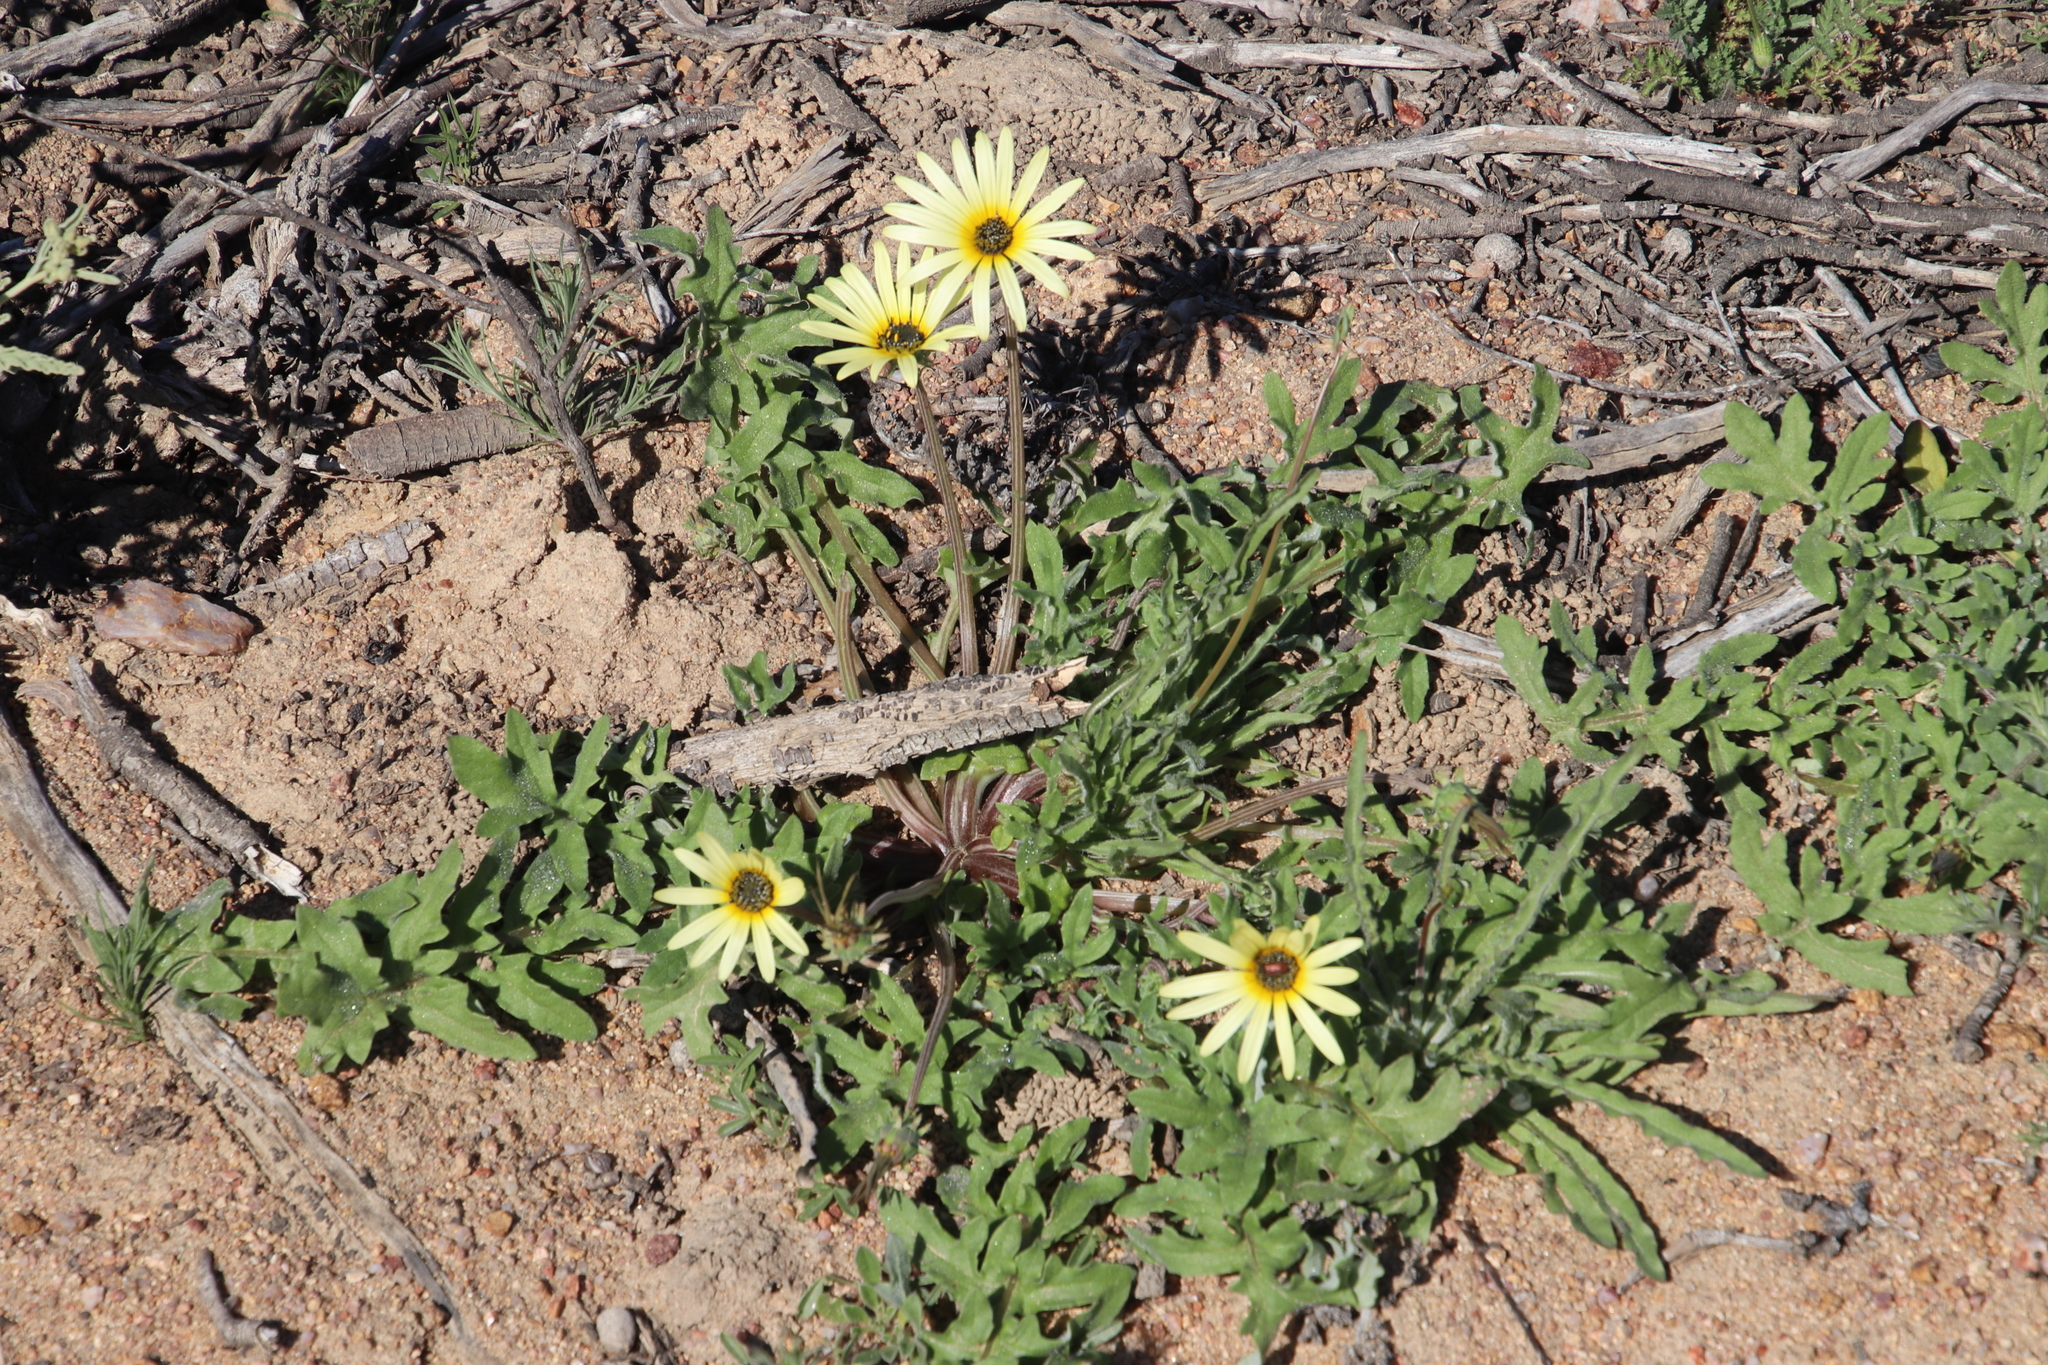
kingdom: Plantae
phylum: Tracheophyta
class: Magnoliopsida
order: Asterales
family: Asteraceae
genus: Arctotheca
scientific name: Arctotheca calendula
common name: Capeweed
